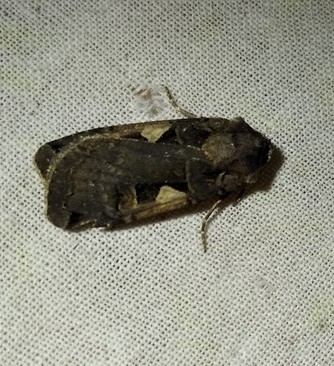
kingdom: Animalia
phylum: Arthropoda
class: Insecta
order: Lepidoptera
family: Noctuidae
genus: Xestia
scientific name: Xestia c-nigrum
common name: Setaceous hebrew character
